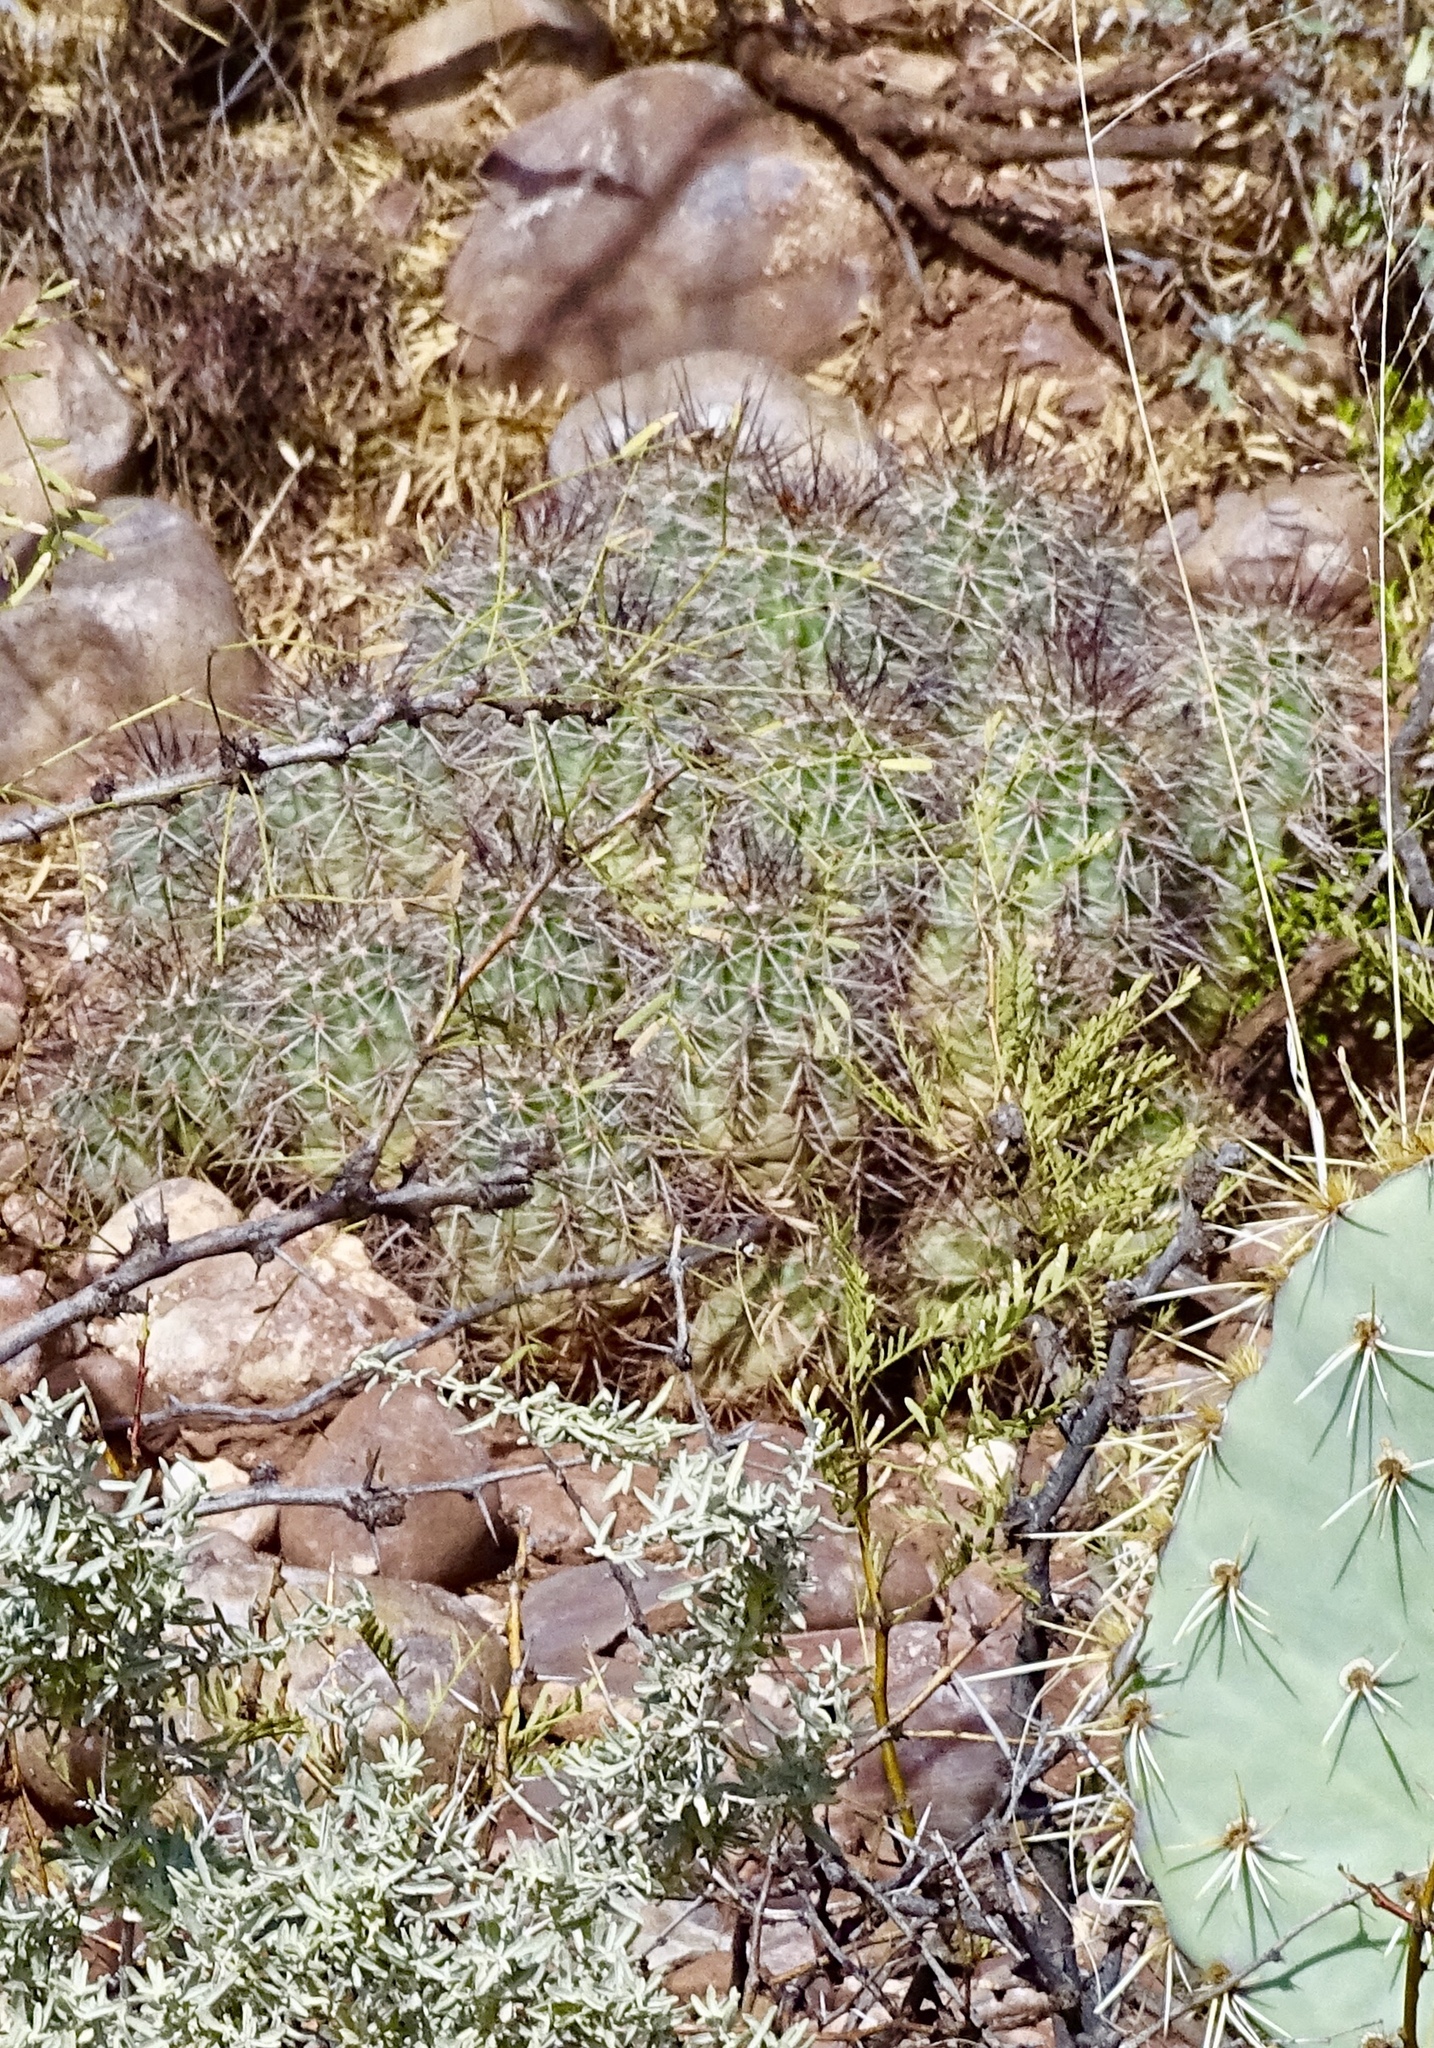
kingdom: Plantae
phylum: Tracheophyta
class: Magnoliopsida
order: Caryophyllales
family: Cactaceae
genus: Echinocereus
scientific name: Echinocereus coccineus
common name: Scarlet hedgehog cactus
